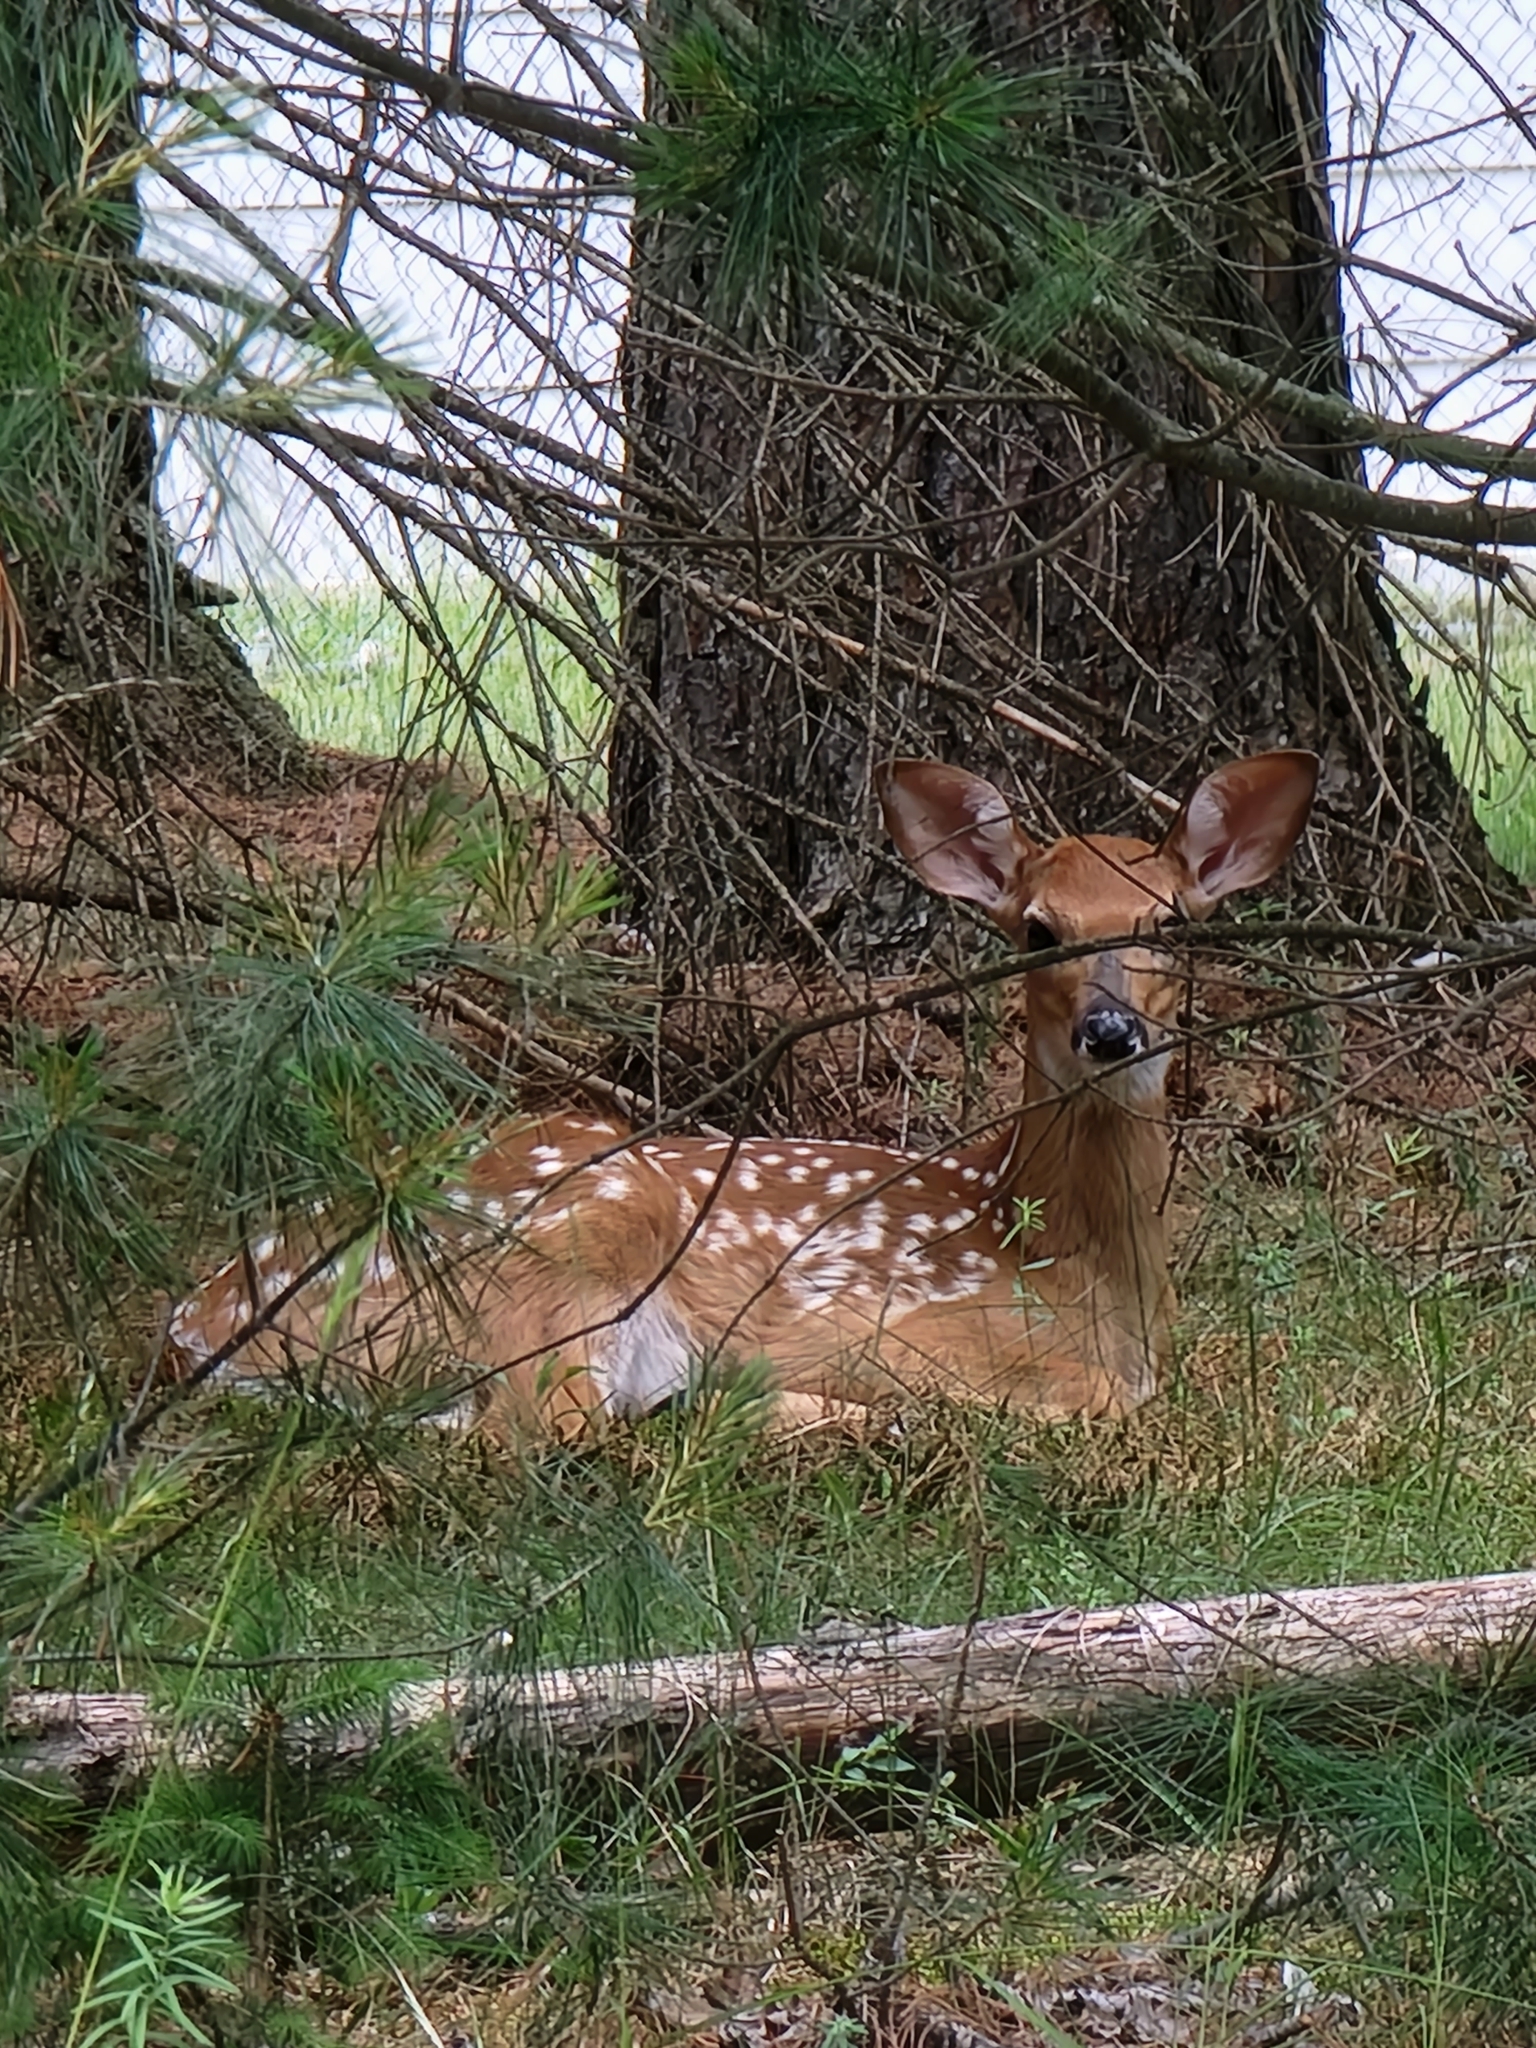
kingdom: Animalia
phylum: Chordata
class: Mammalia
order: Artiodactyla
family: Cervidae
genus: Odocoileus
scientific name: Odocoileus virginianus
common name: White-tailed deer
